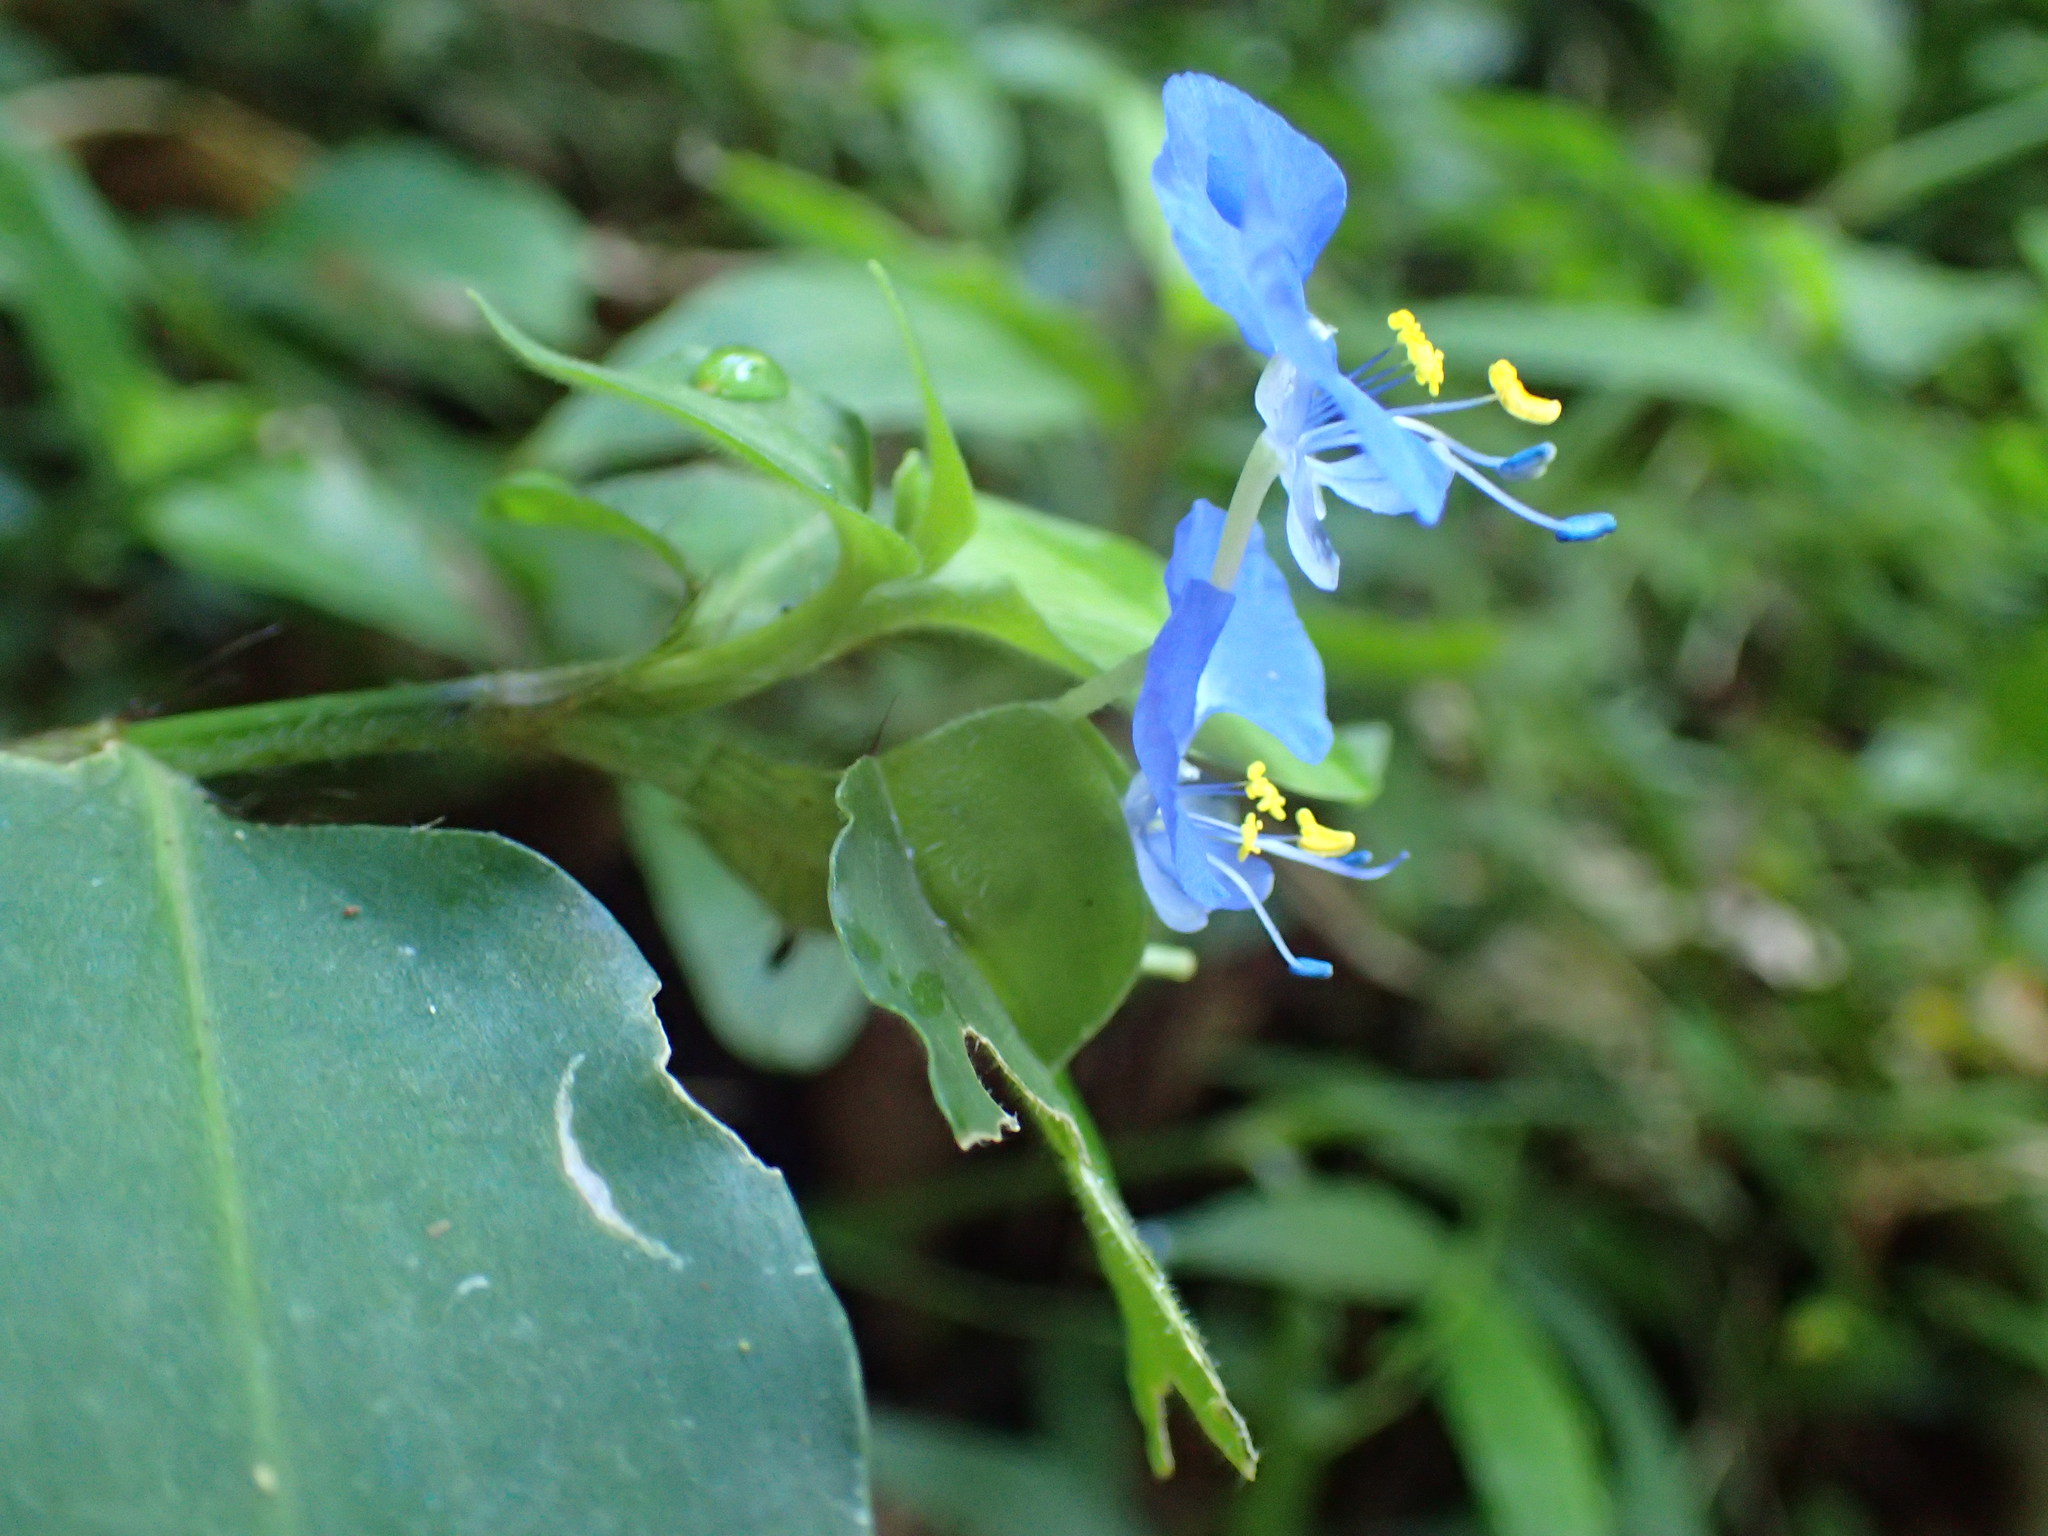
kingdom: Plantae
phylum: Tracheophyta
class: Liliopsida
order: Commelinales
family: Commelinaceae
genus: Commelina
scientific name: Commelina benghalensis
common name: Jio
